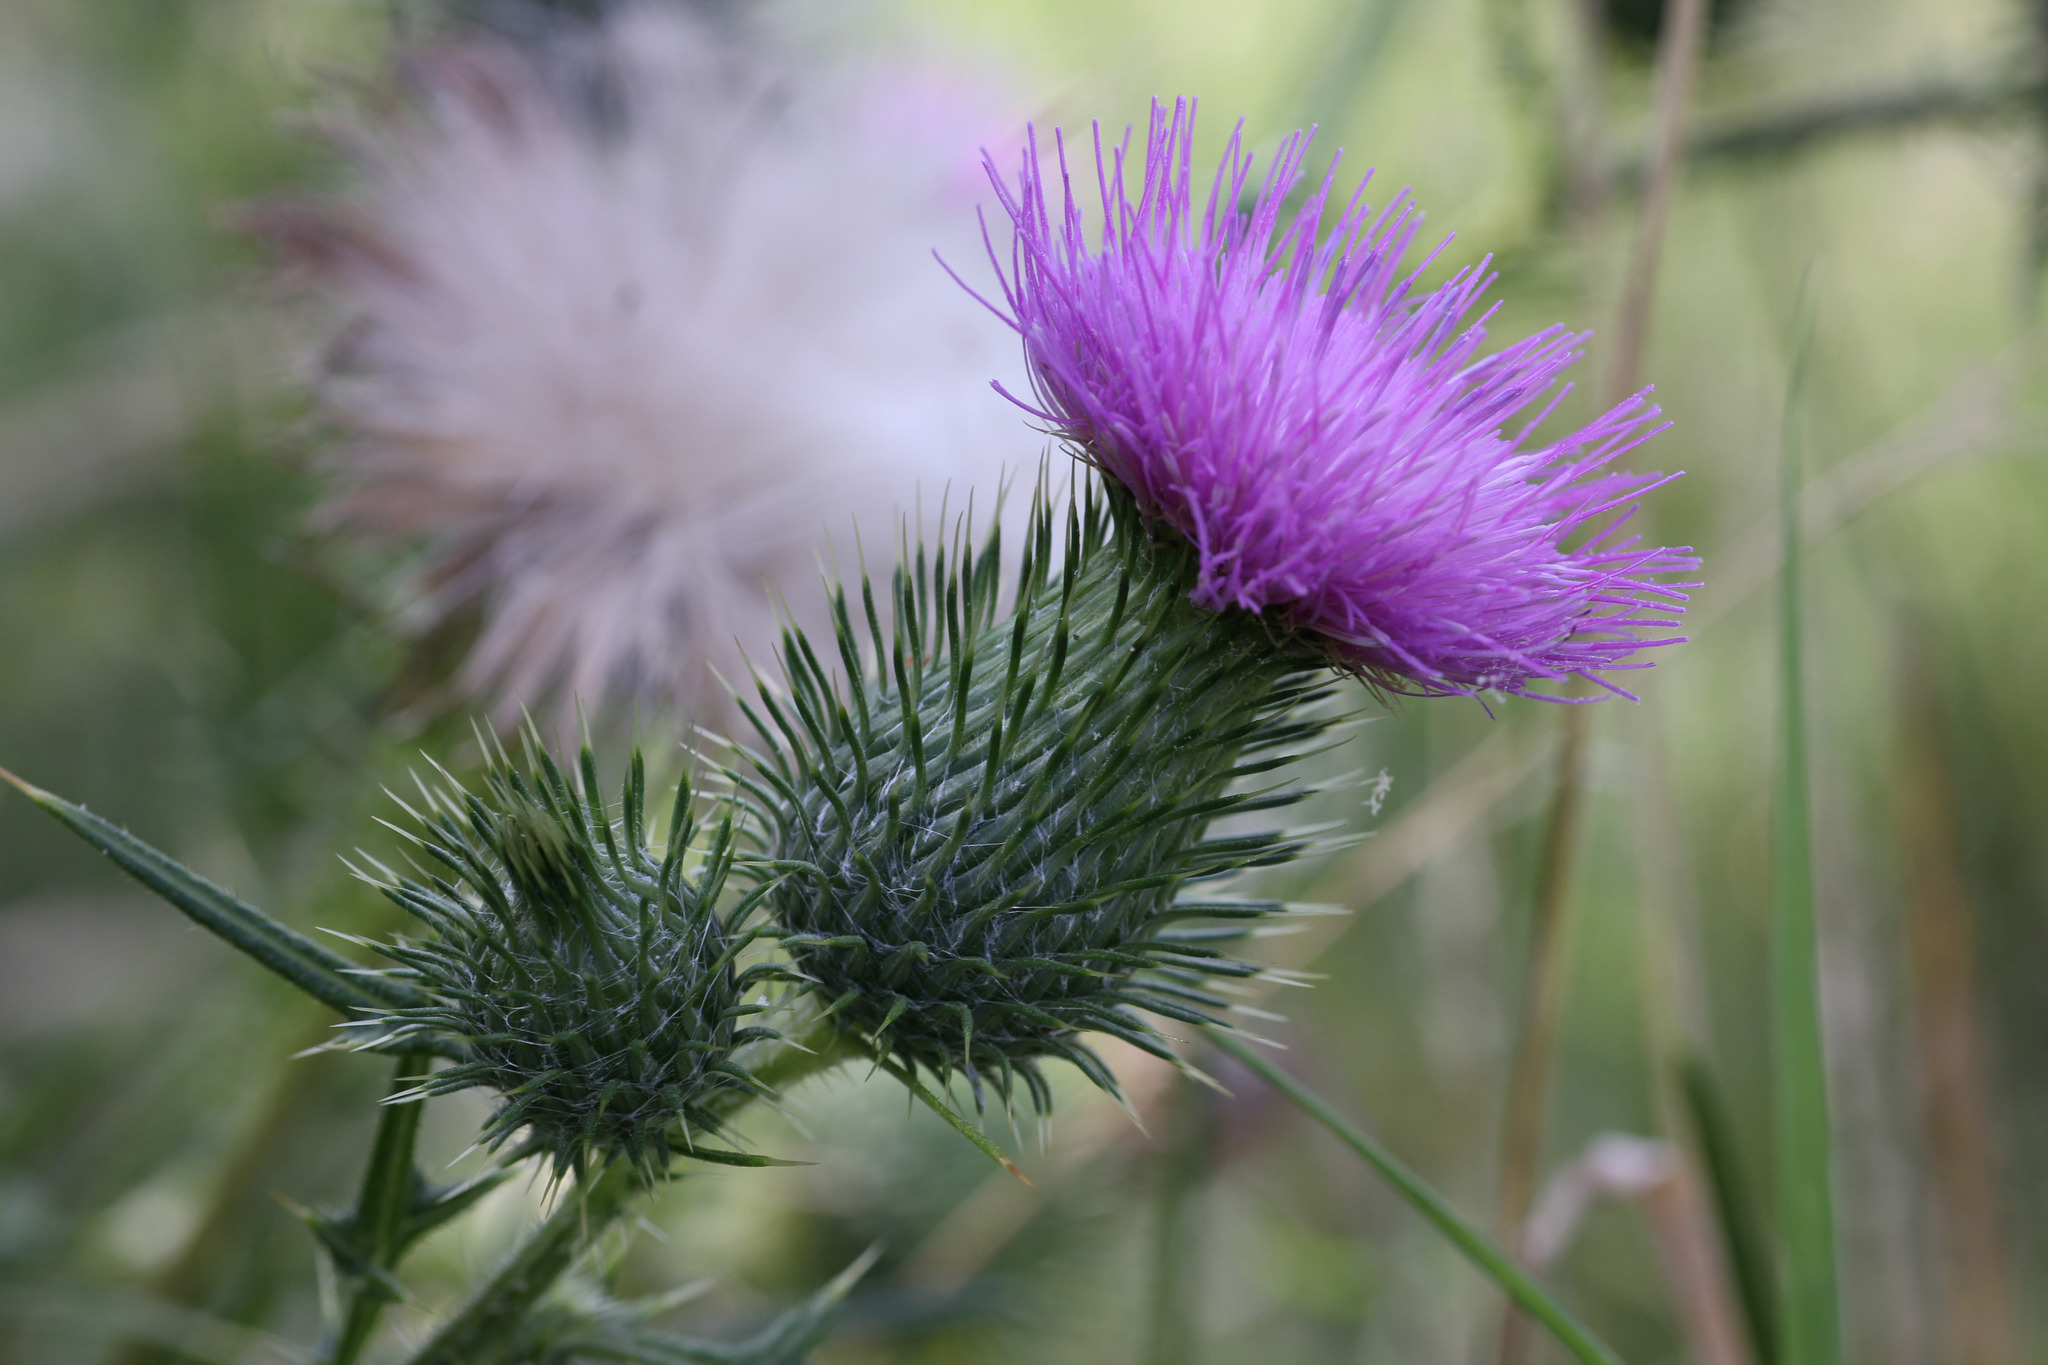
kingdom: Plantae
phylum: Tracheophyta
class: Magnoliopsida
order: Asterales
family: Asteraceae
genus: Cirsium
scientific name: Cirsium vulgare
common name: Bull thistle
